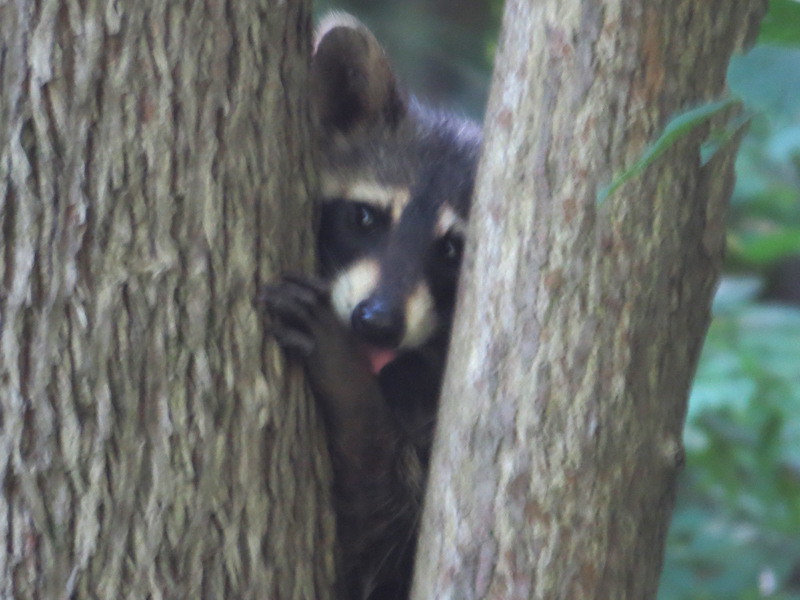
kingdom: Animalia
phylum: Chordata
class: Mammalia
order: Carnivora
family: Procyonidae
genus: Procyon
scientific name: Procyon lotor
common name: Raccoon
